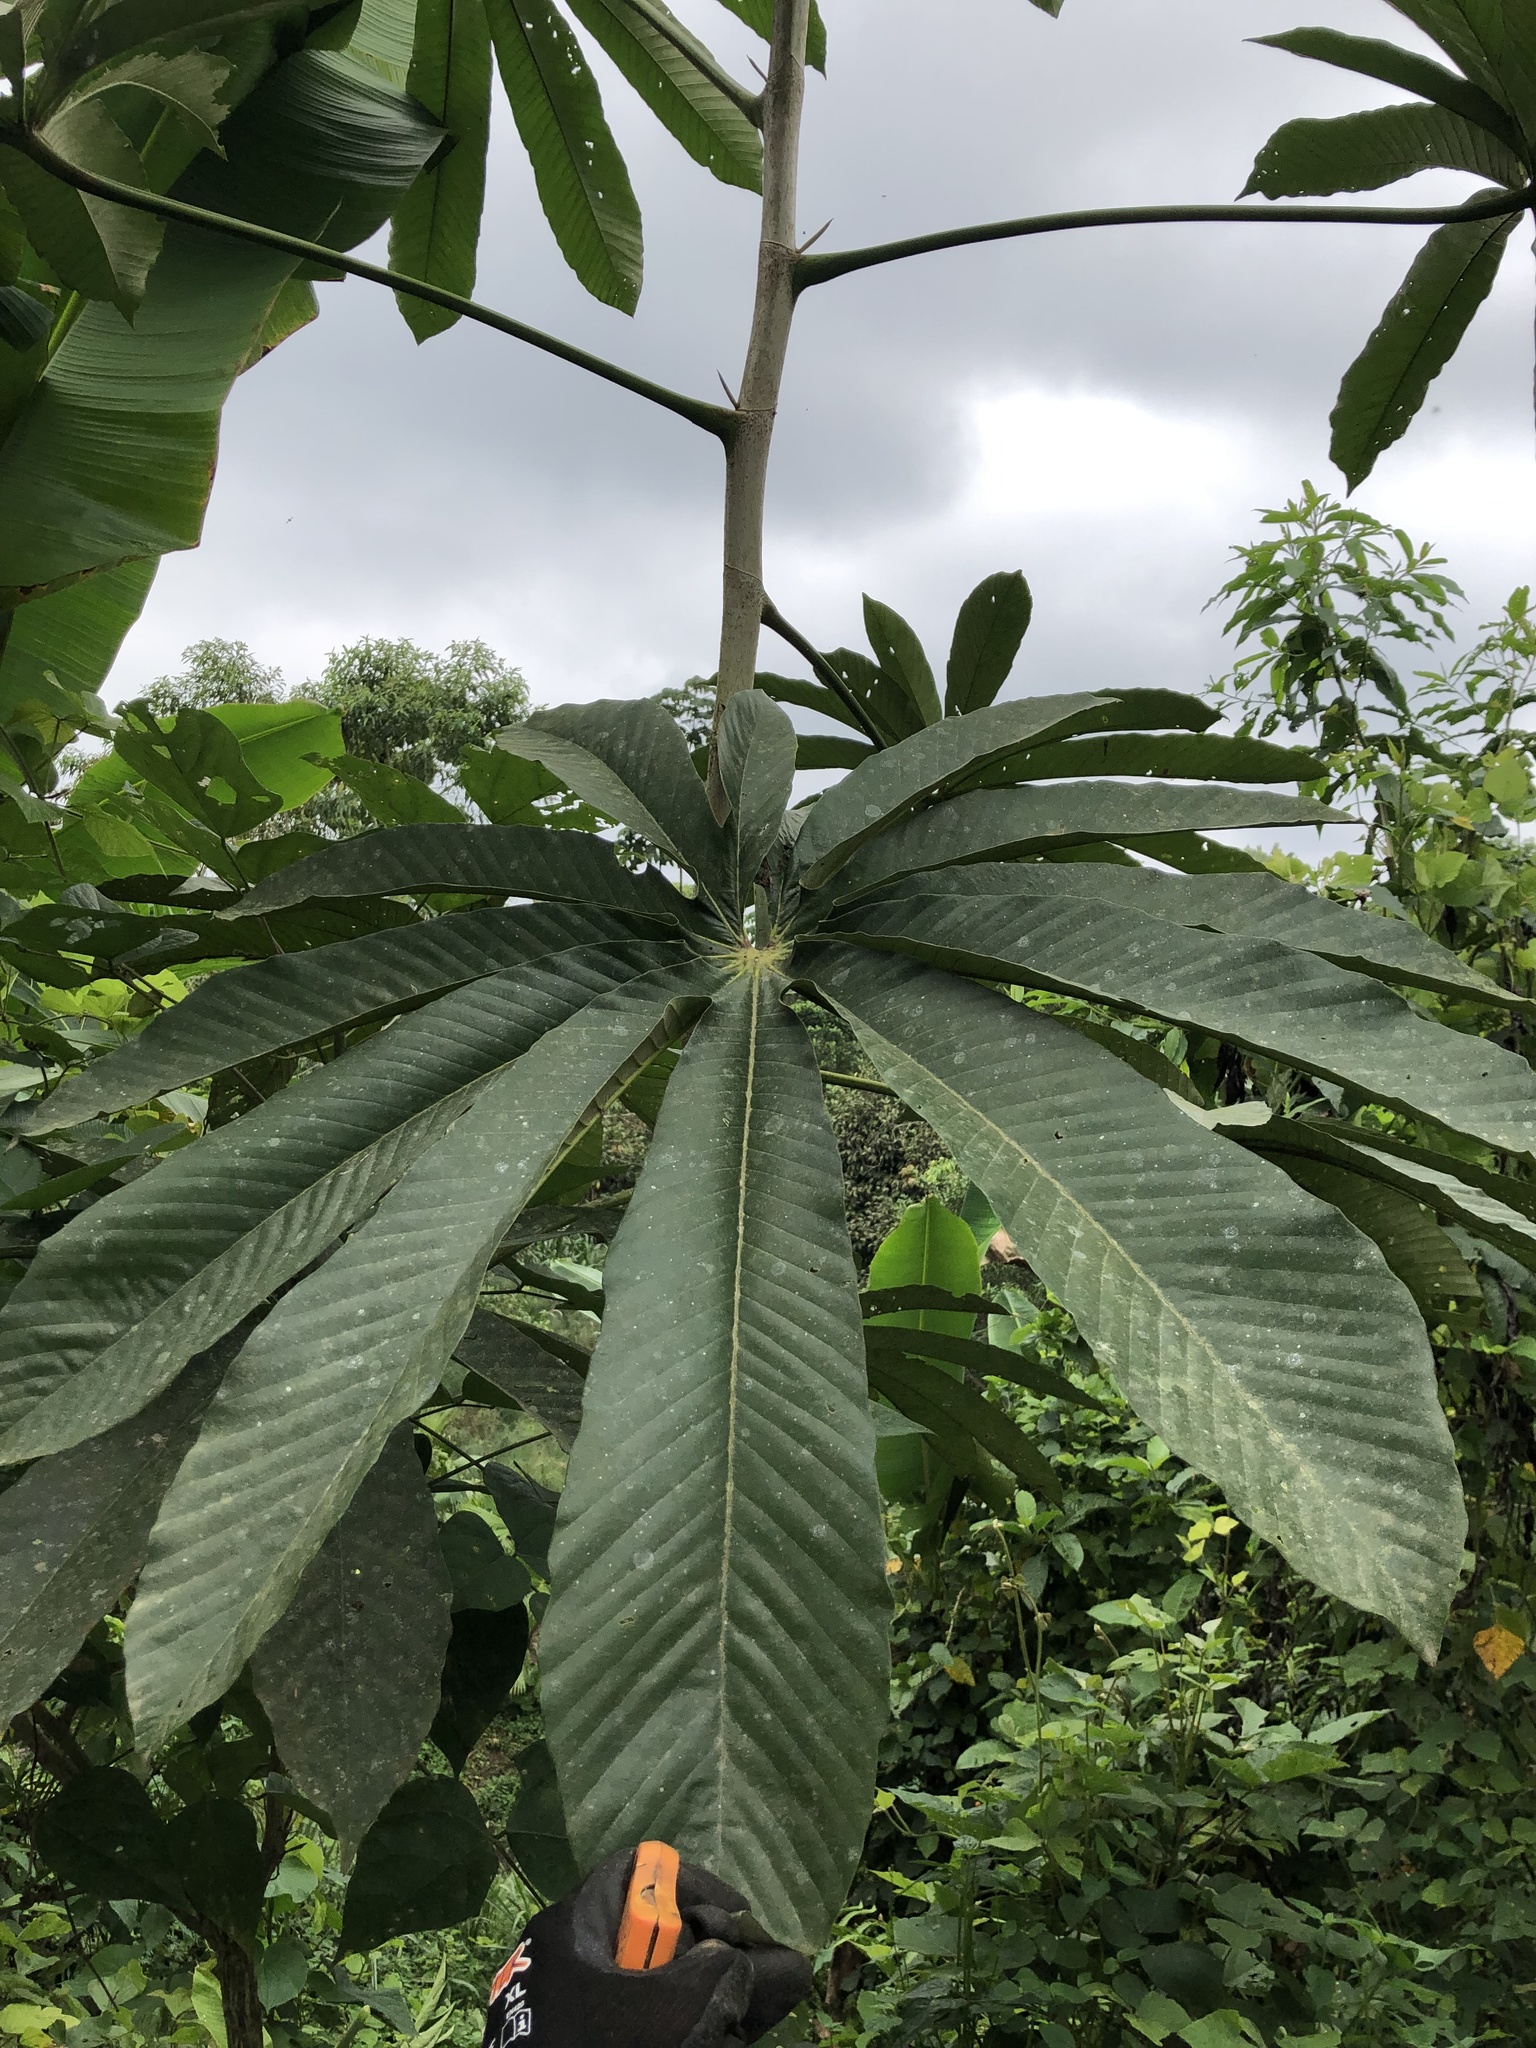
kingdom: Plantae
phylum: Tracheophyta
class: Magnoliopsida
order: Rosales
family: Urticaceae
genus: Pourouma
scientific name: Pourouma cecropiifolia
